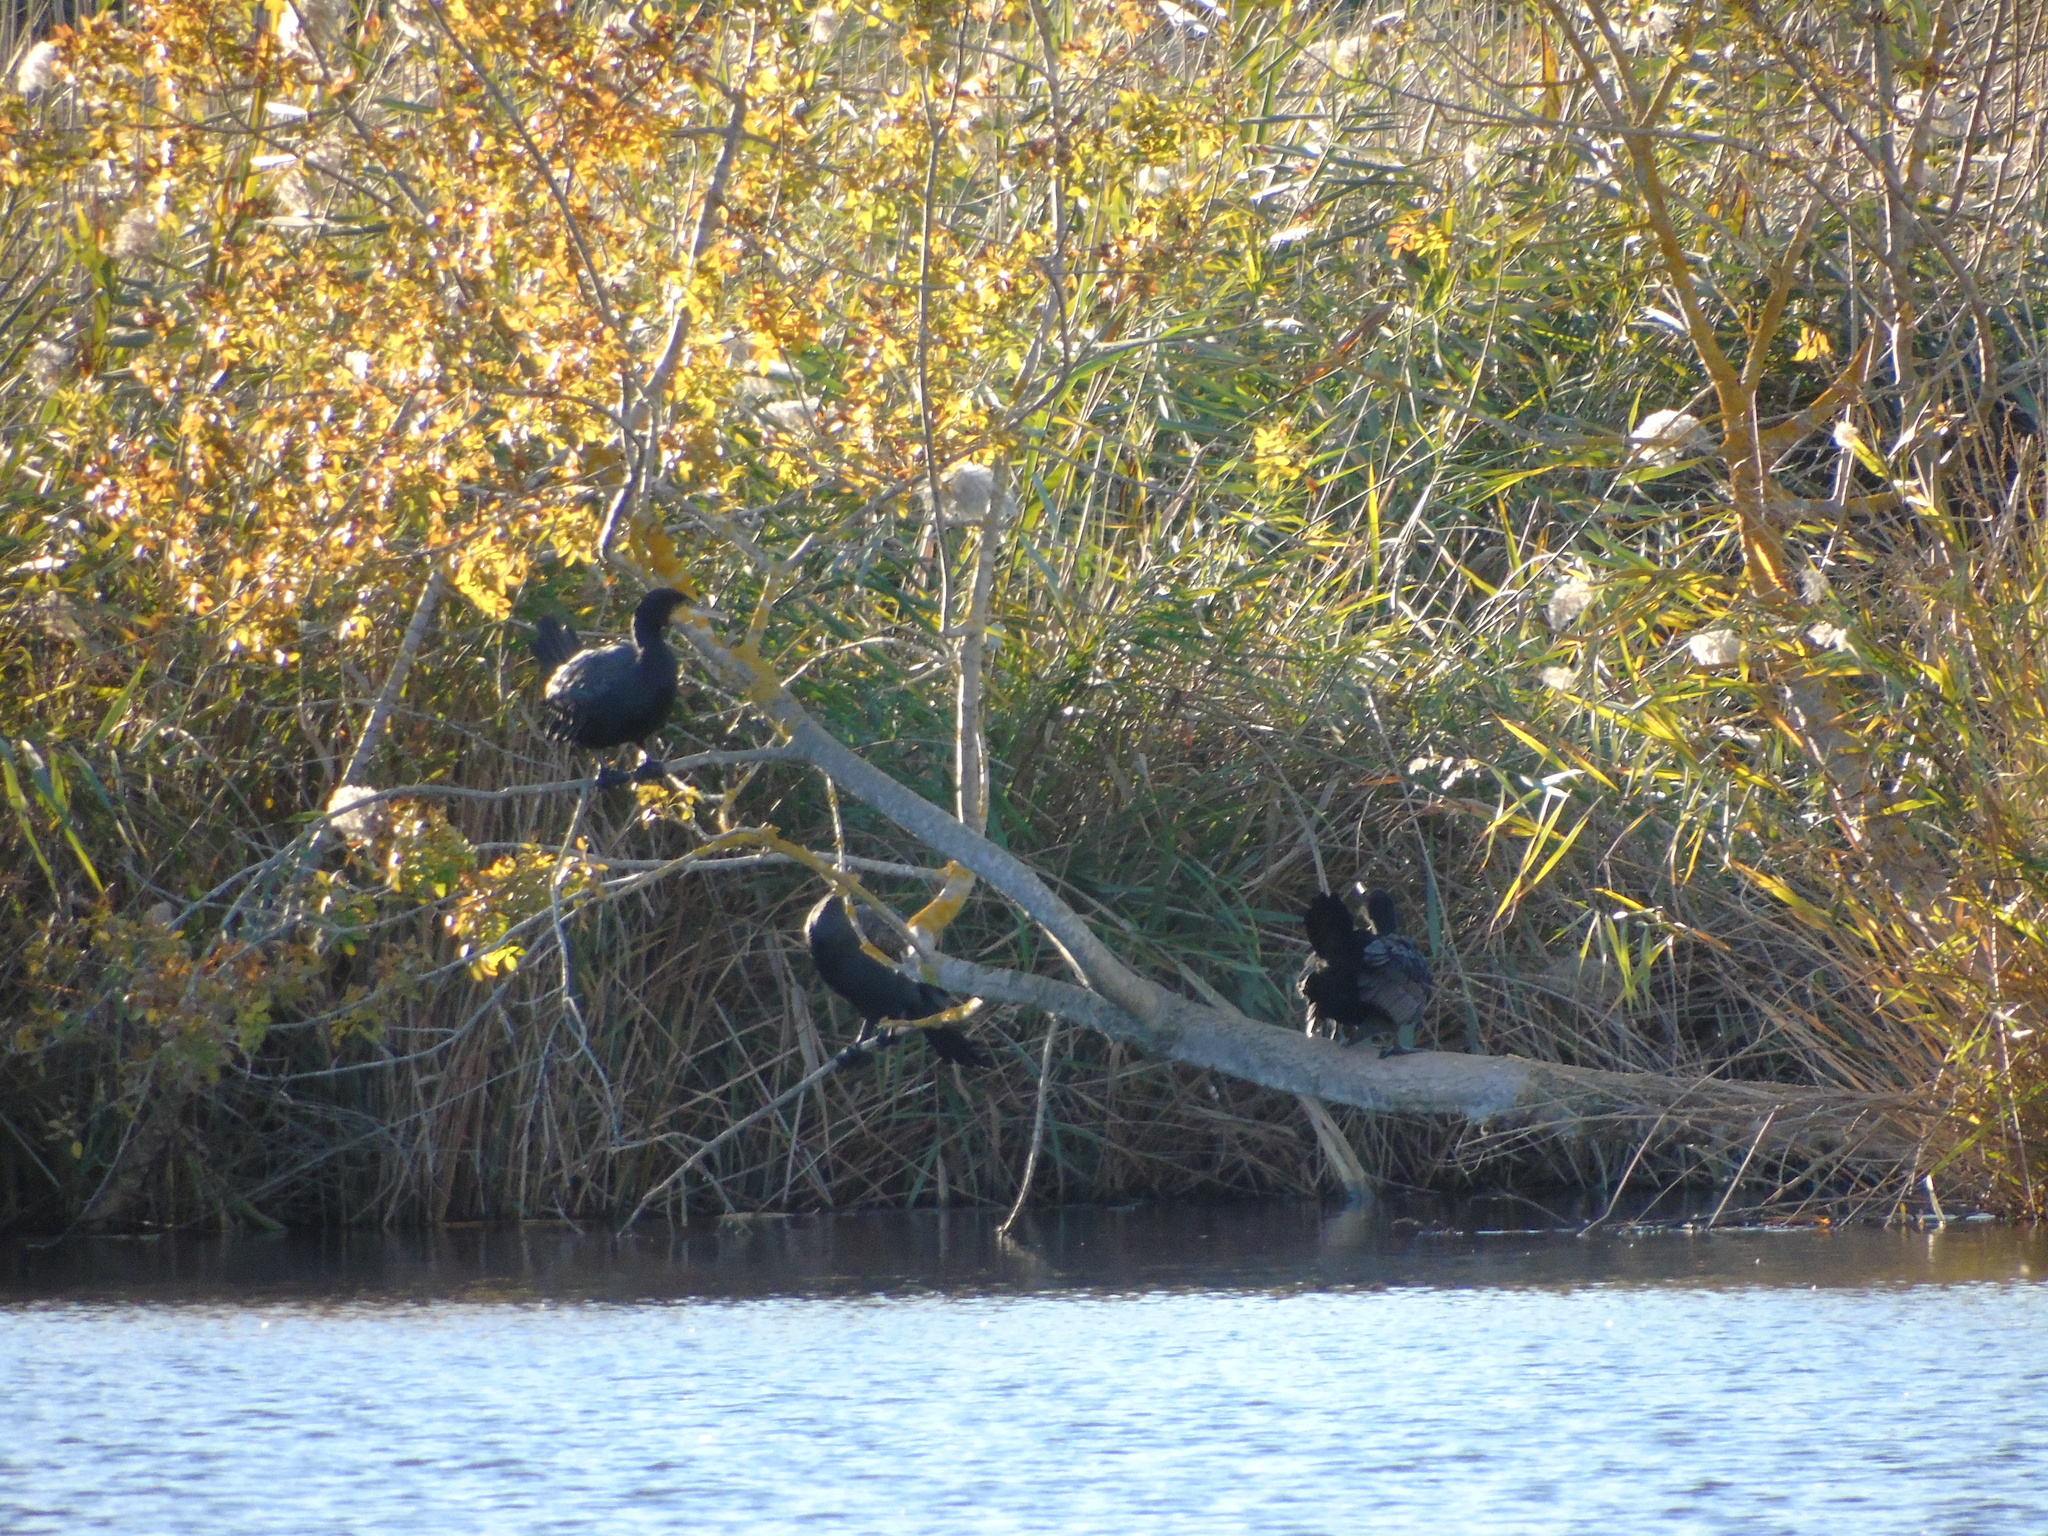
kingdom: Animalia
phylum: Chordata
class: Aves
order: Suliformes
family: Phalacrocoracidae
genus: Phalacrocorax
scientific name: Phalacrocorax carbo
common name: Great cormorant
